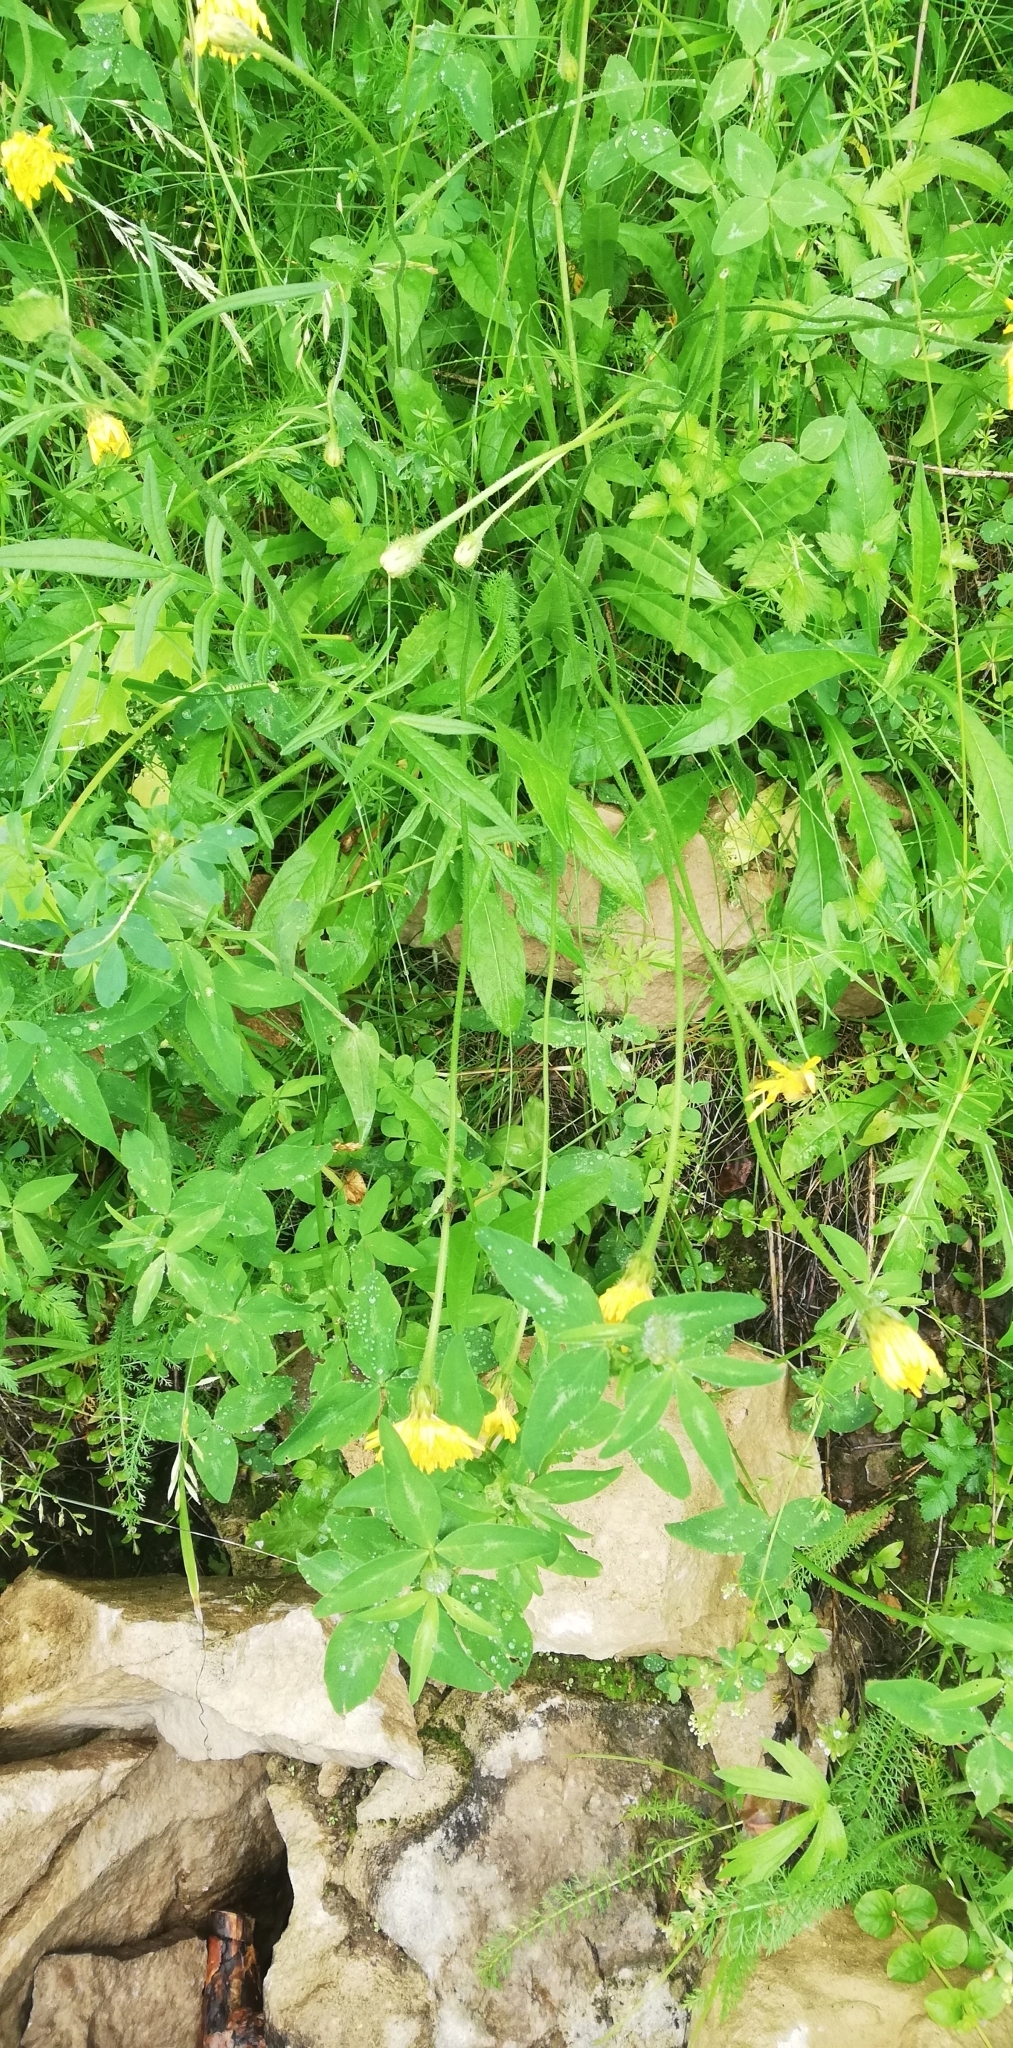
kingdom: Plantae
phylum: Tracheophyta
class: Magnoliopsida
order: Asterales
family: Asteraceae
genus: Leontodon
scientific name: Leontodon hispidus
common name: Rough hawkbit
